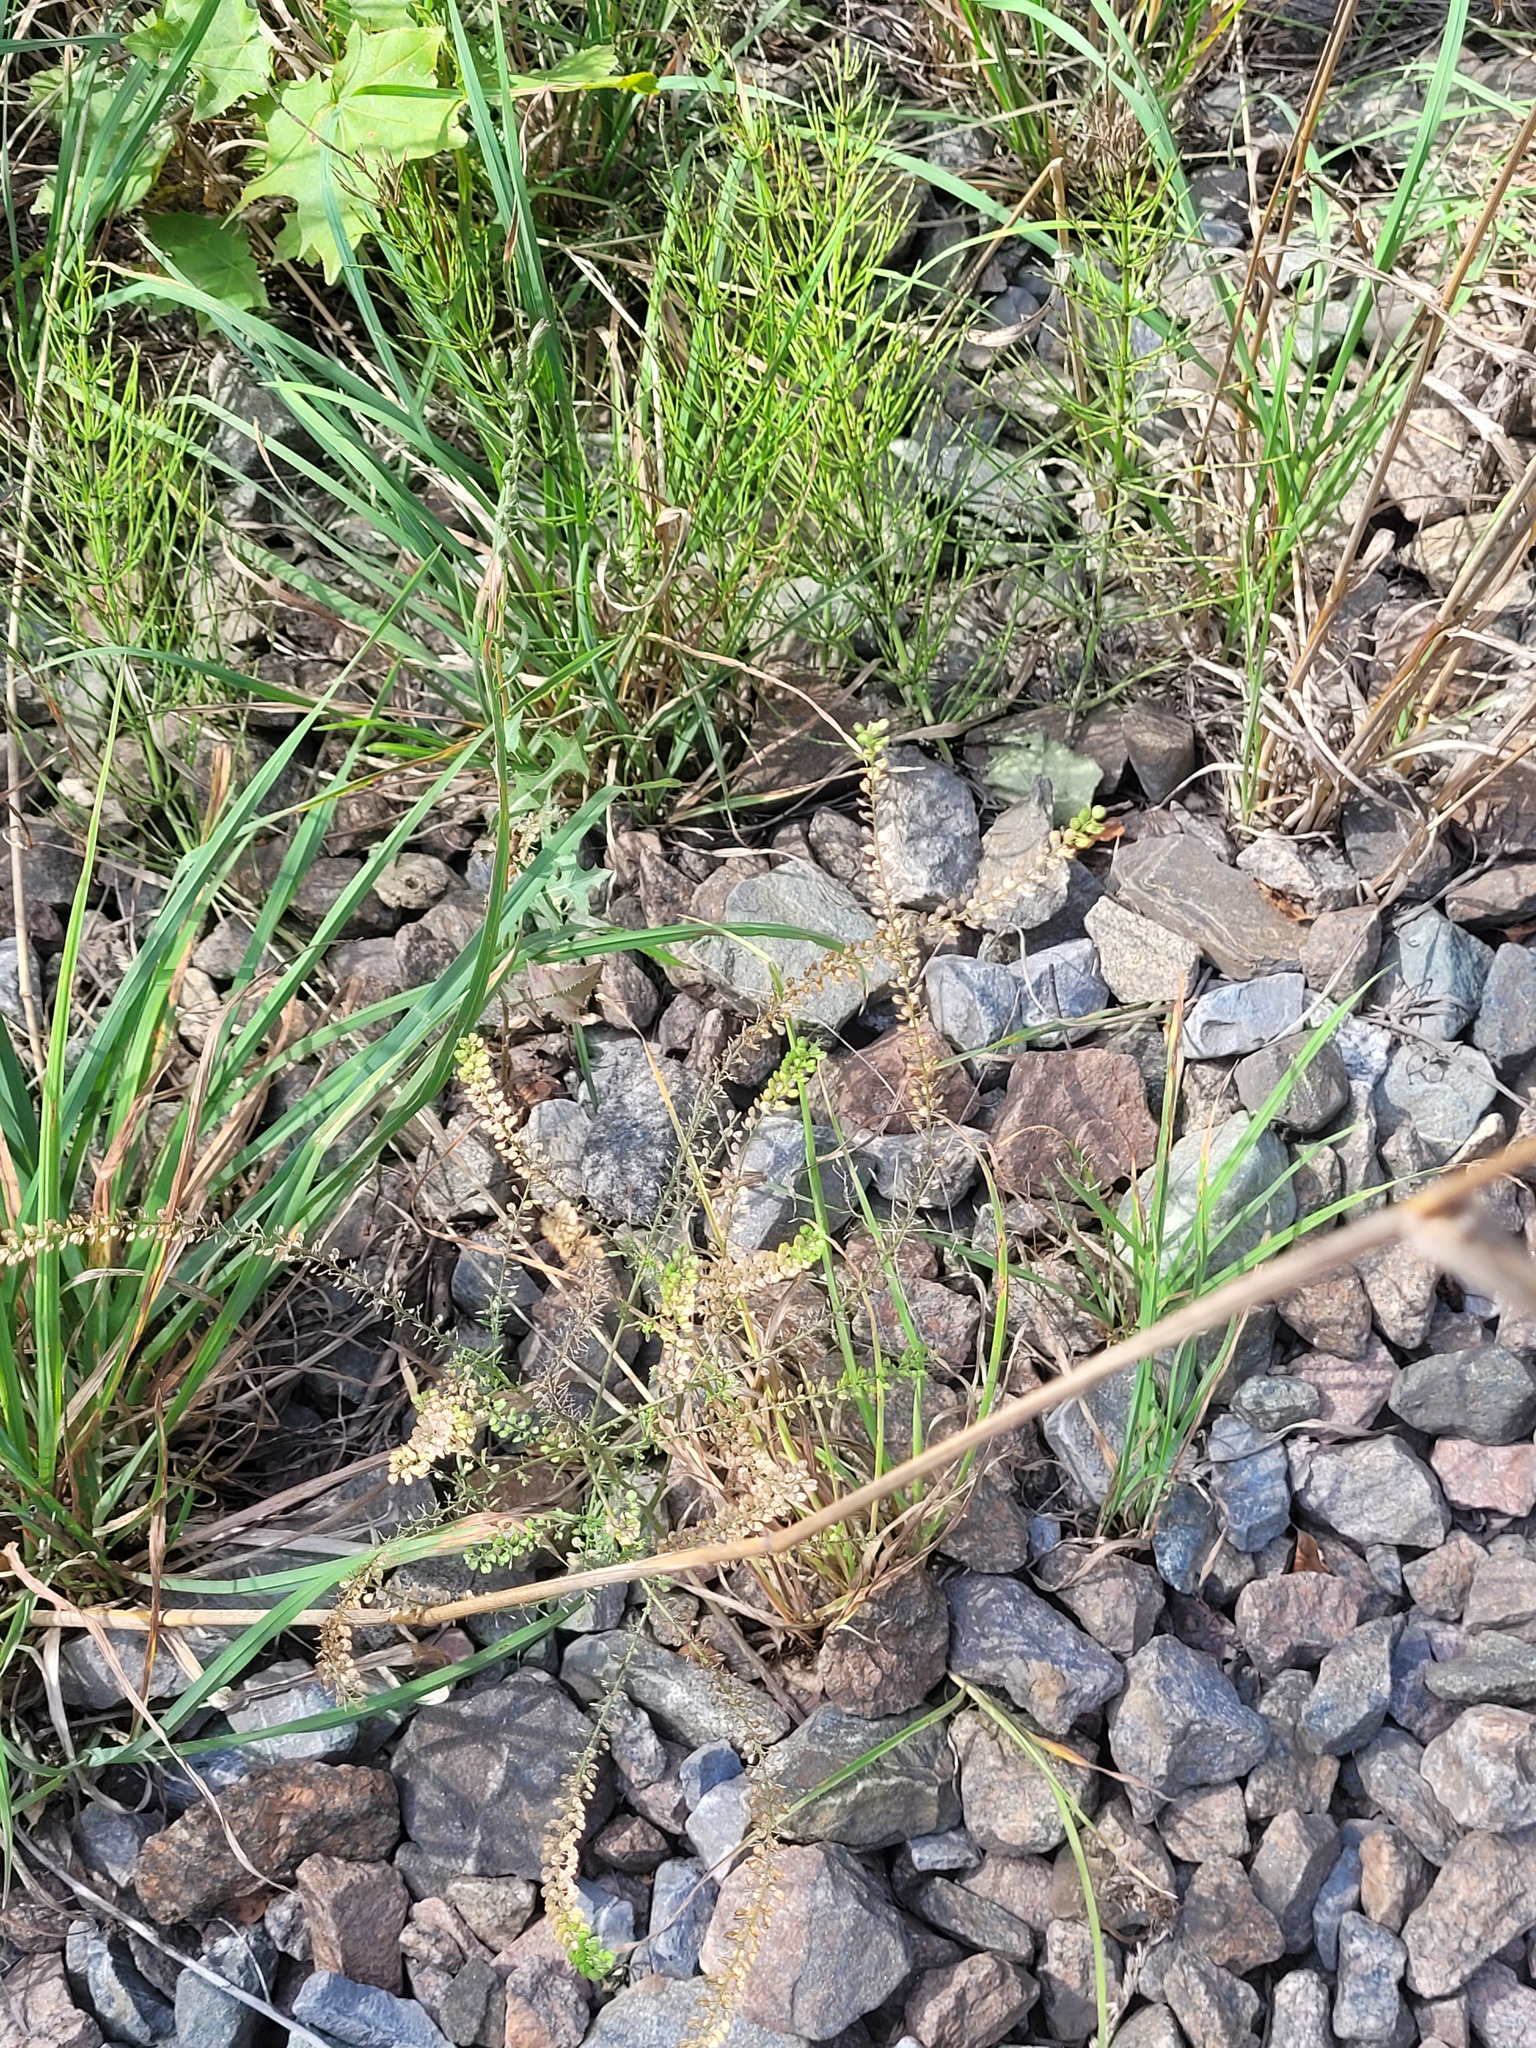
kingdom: Plantae
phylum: Tracheophyta
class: Magnoliopsida
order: Brassicales
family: Brassicaceae
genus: Lepidium
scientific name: Lepidium densiflorum
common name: Miner's pepperwort
